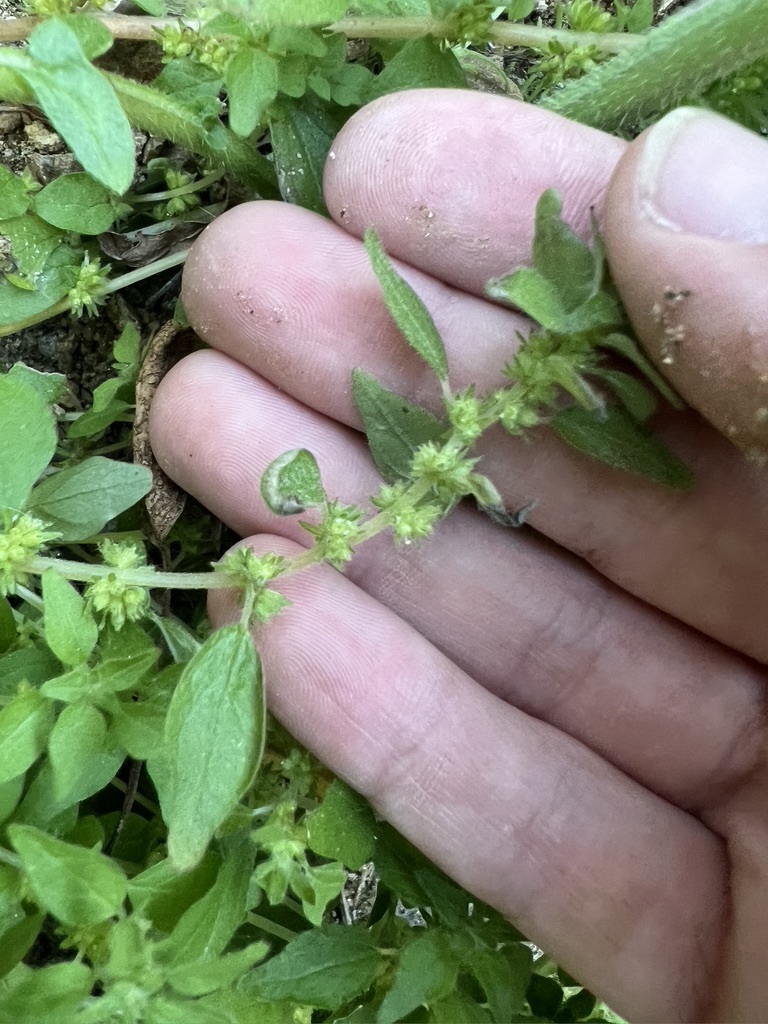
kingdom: Plantae
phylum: Tracheophyta
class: Magnoliopsida
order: Rosales
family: Urticaceae
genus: Parietaria
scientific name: Parietaria hespera
